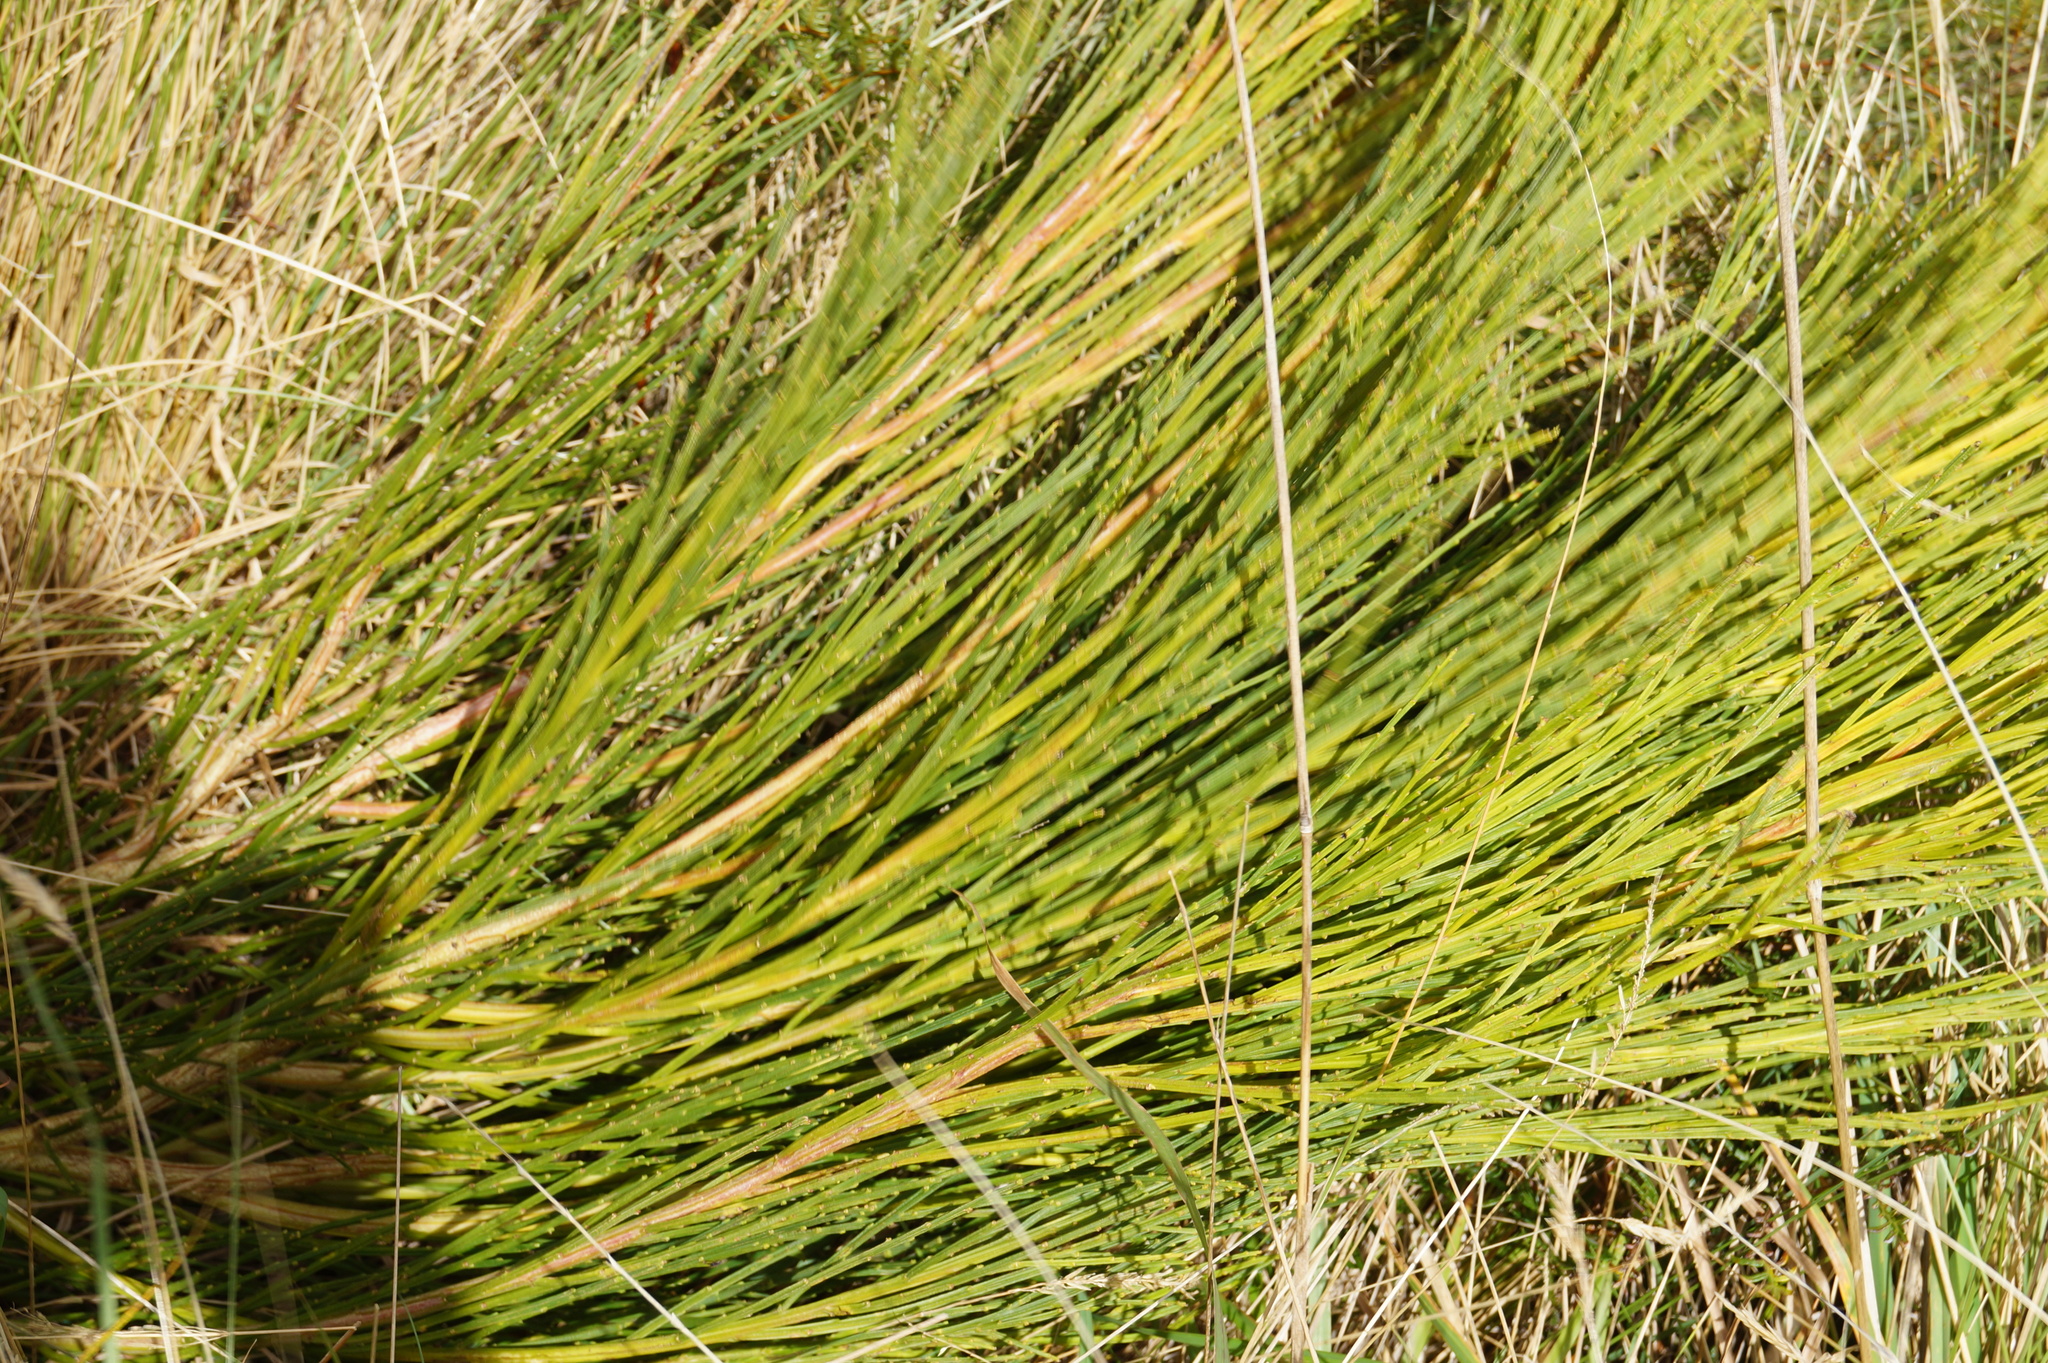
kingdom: Plantae
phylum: Tracheophyta
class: Magnoliopsida
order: Fabales
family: Fabaceae
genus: Cytisus
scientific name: Cytisus scoparius
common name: Scotch broom
